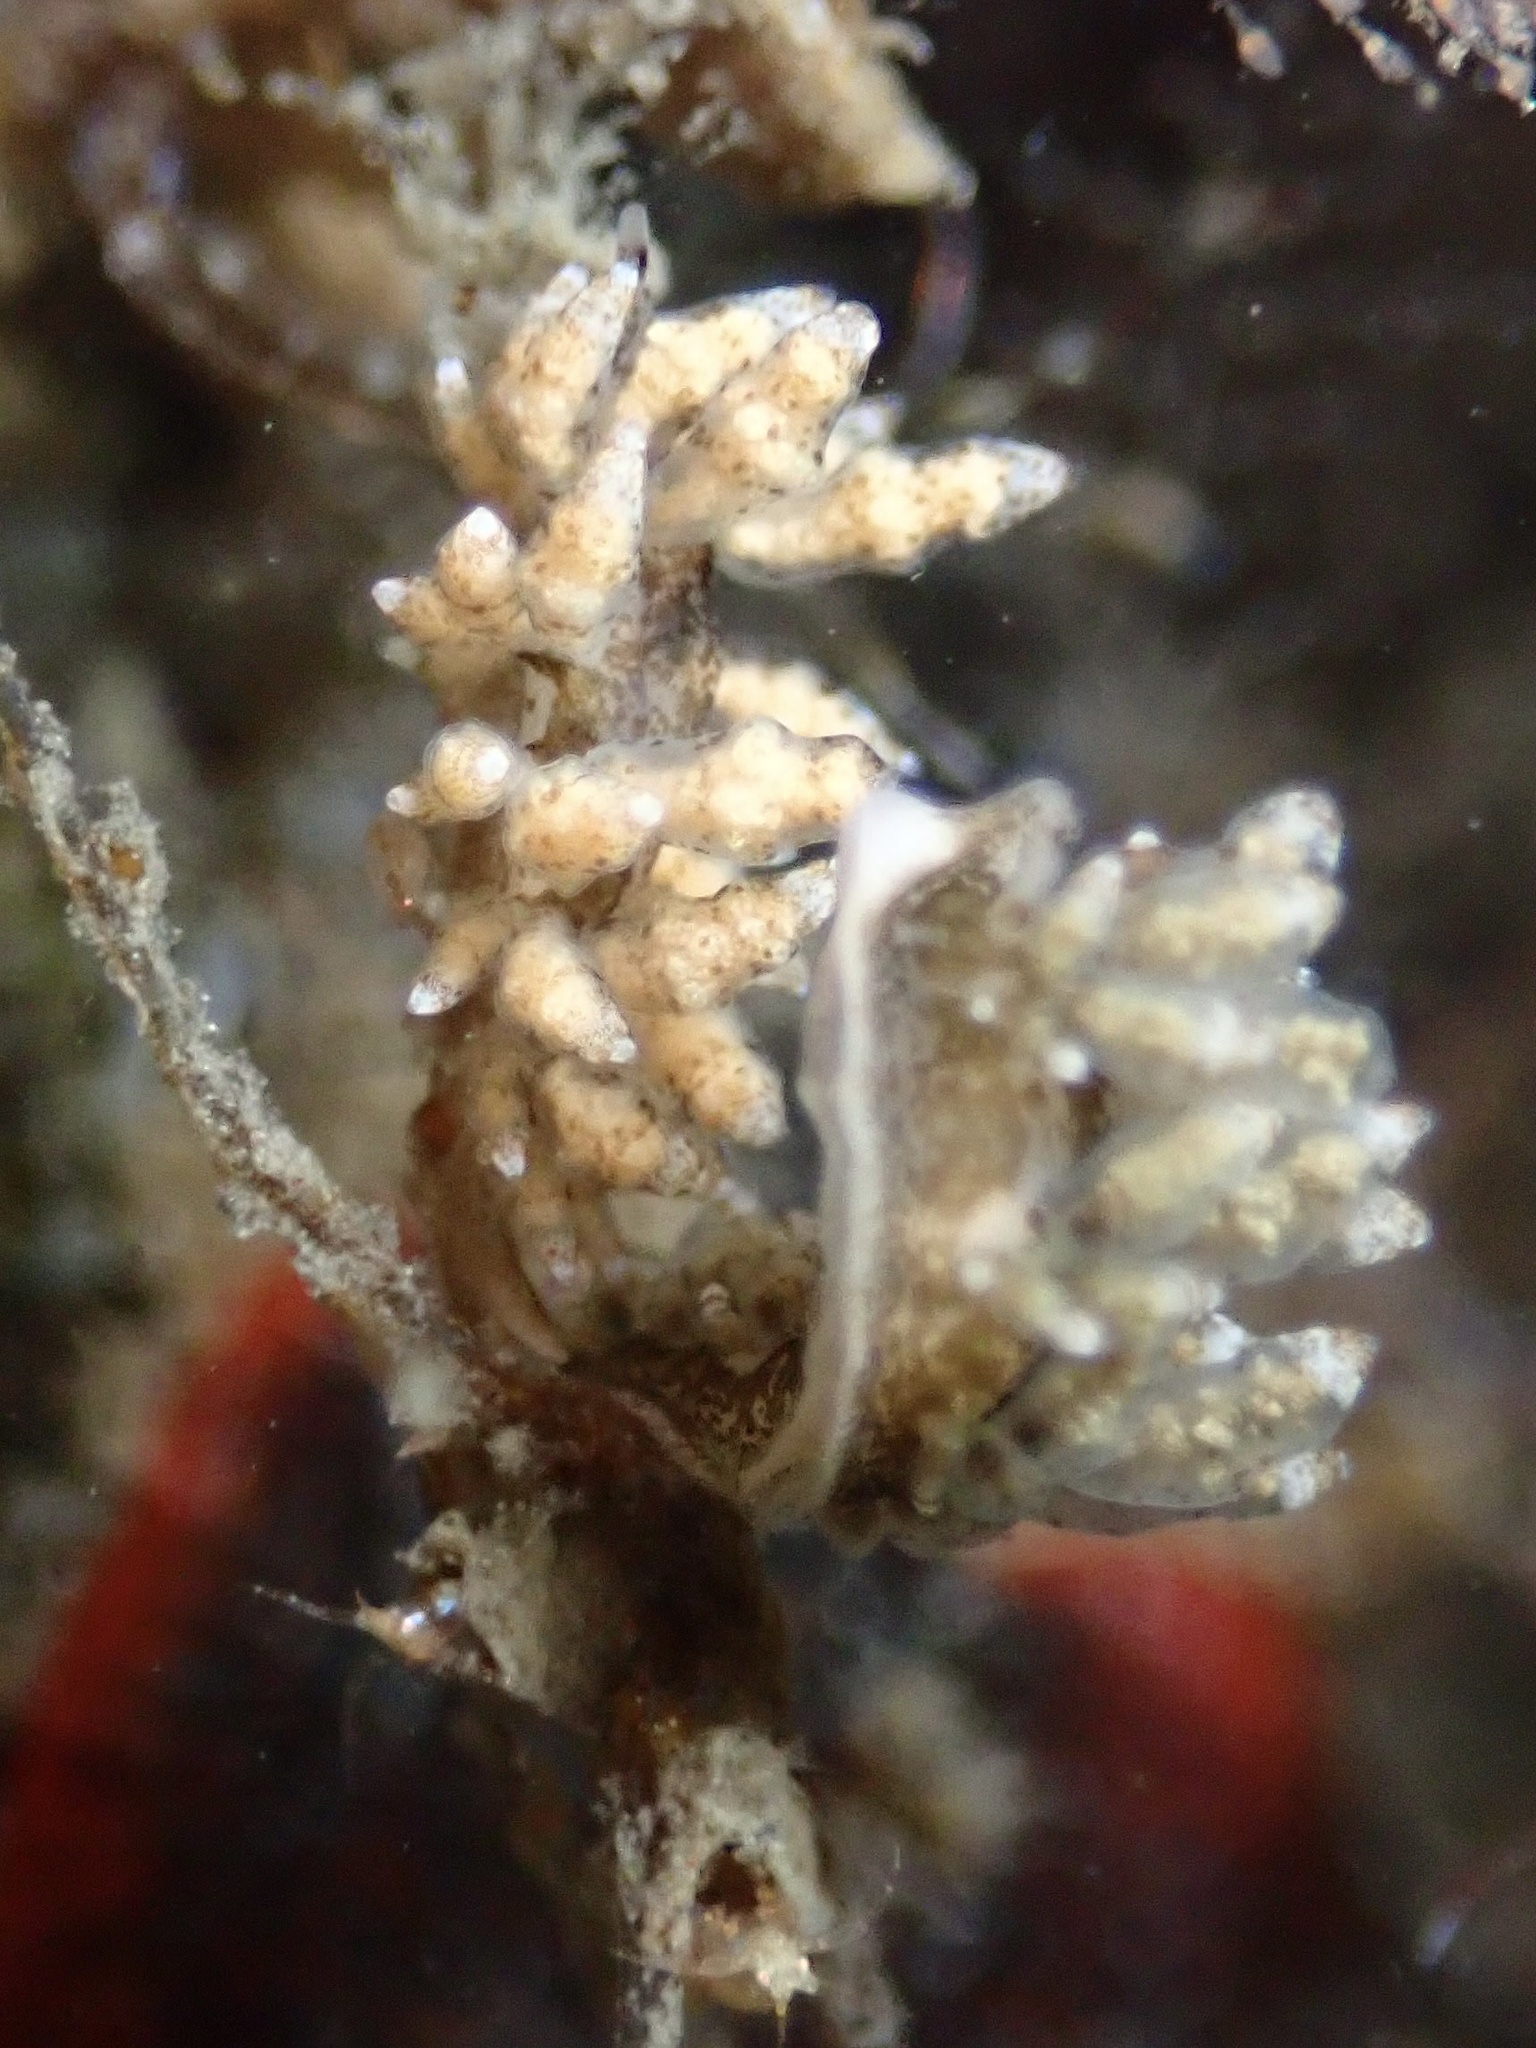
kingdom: Animalia
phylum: Mollusca
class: Gastropoda
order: Nudibranchia
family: Eubranchidae
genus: Eubranchus
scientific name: Eubranchus rustyus
